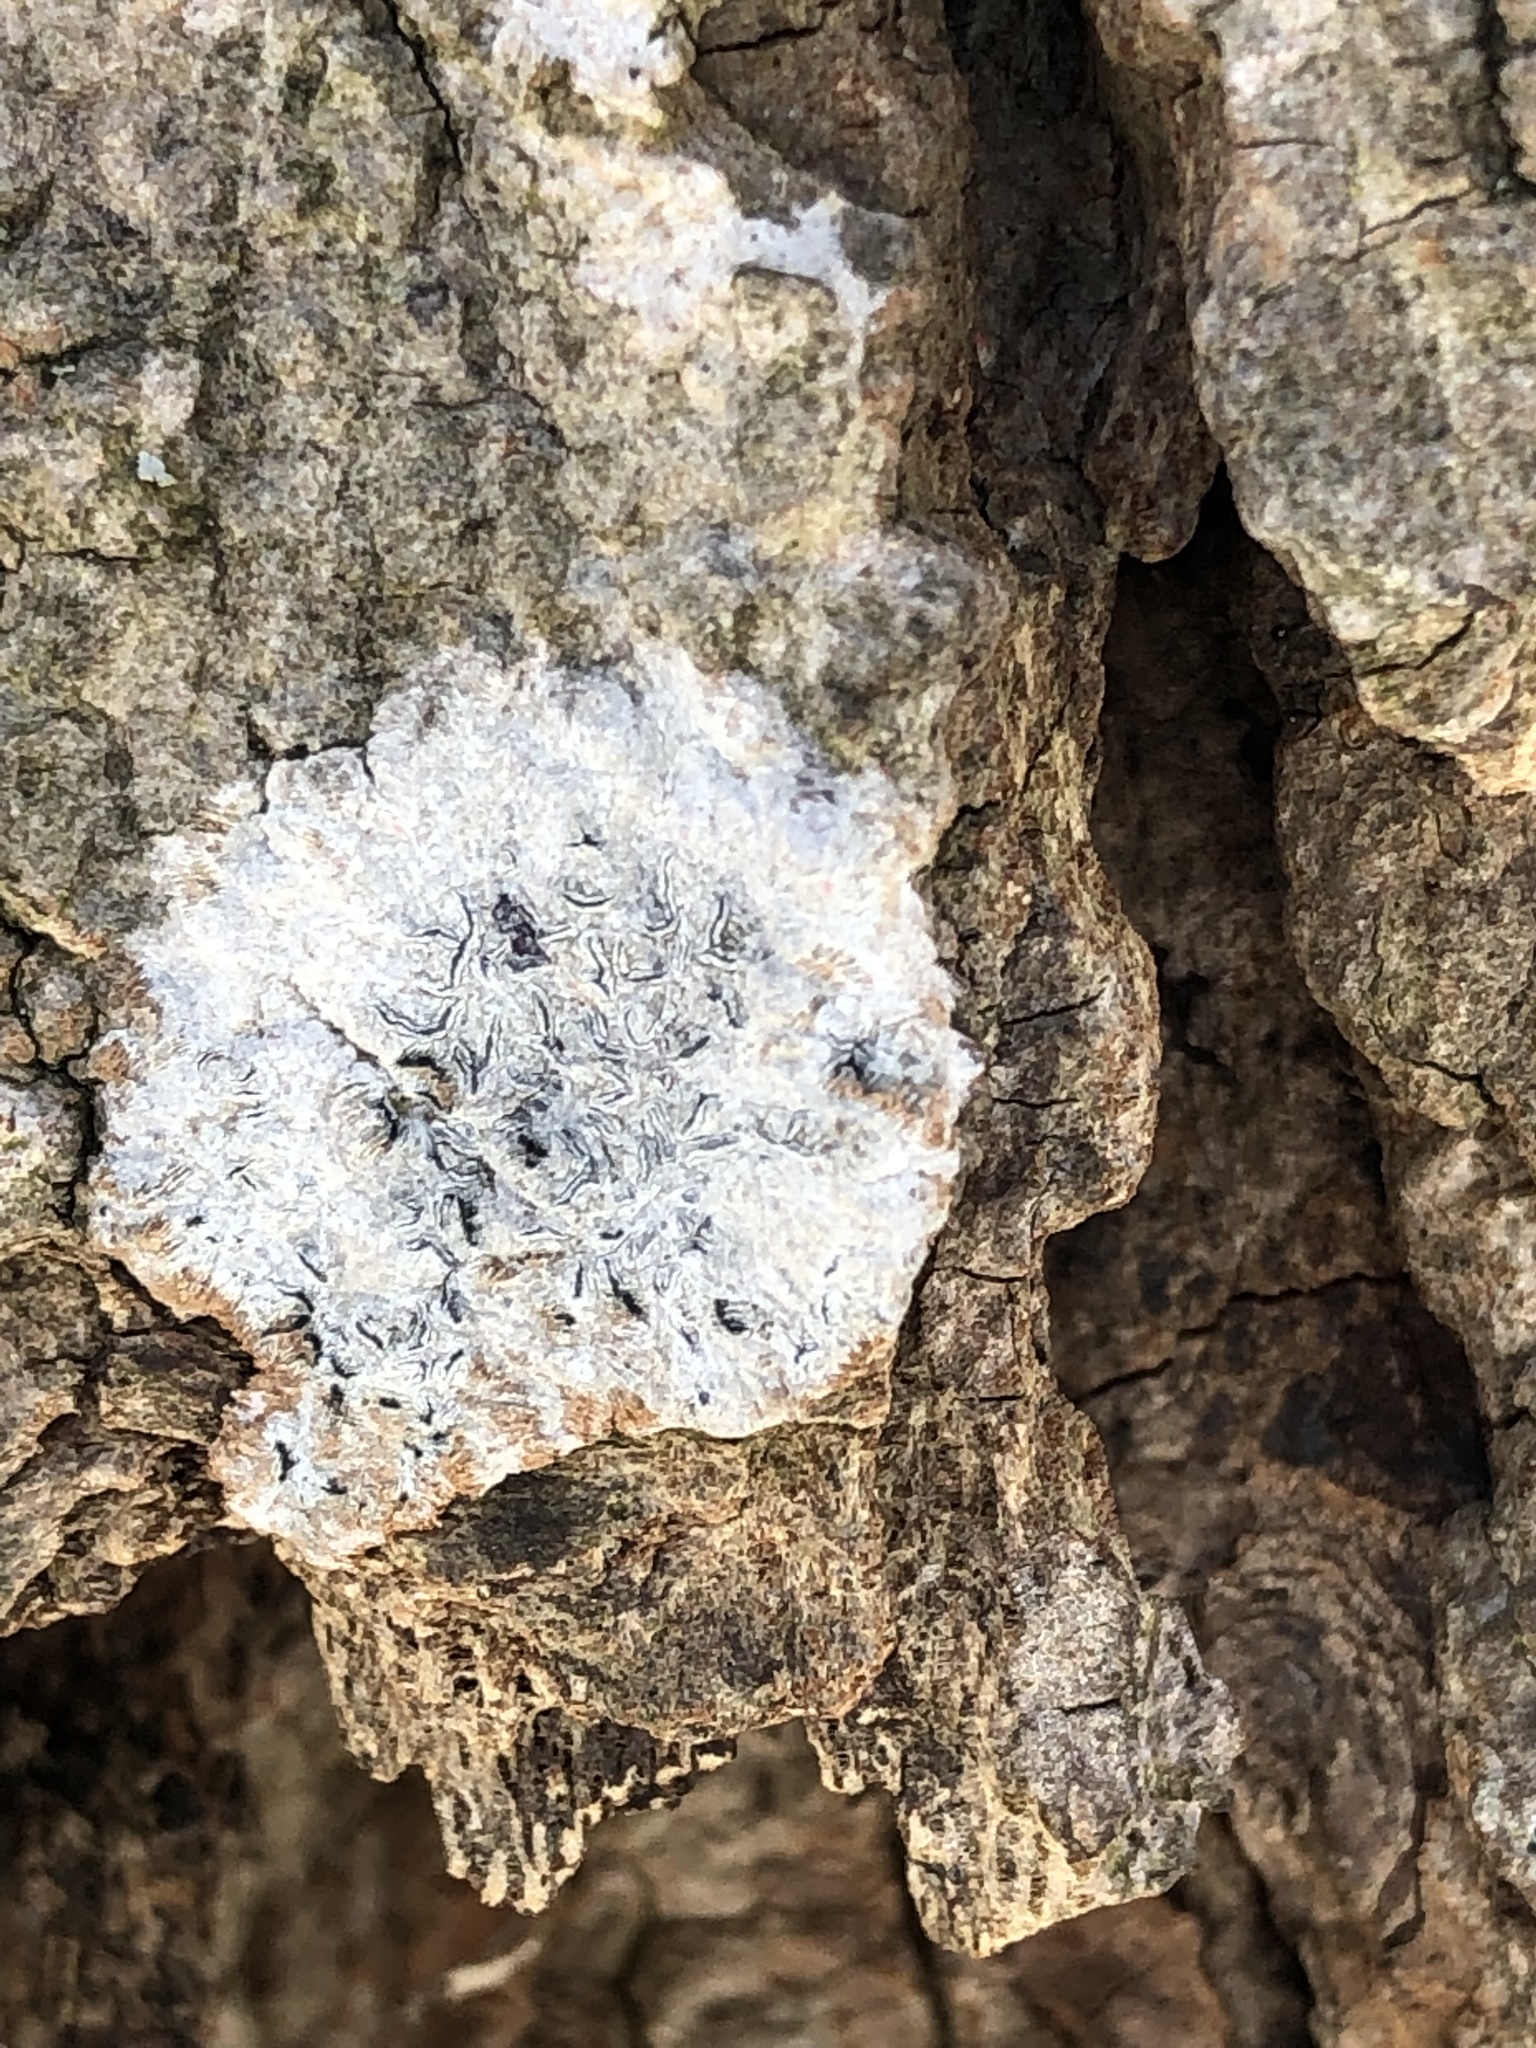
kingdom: Fungi
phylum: Ascomycota
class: Lecanoromycetes
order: Ostropales
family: Graphidaceae
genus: Graphis
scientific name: Graphis scripta
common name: Script lichen
